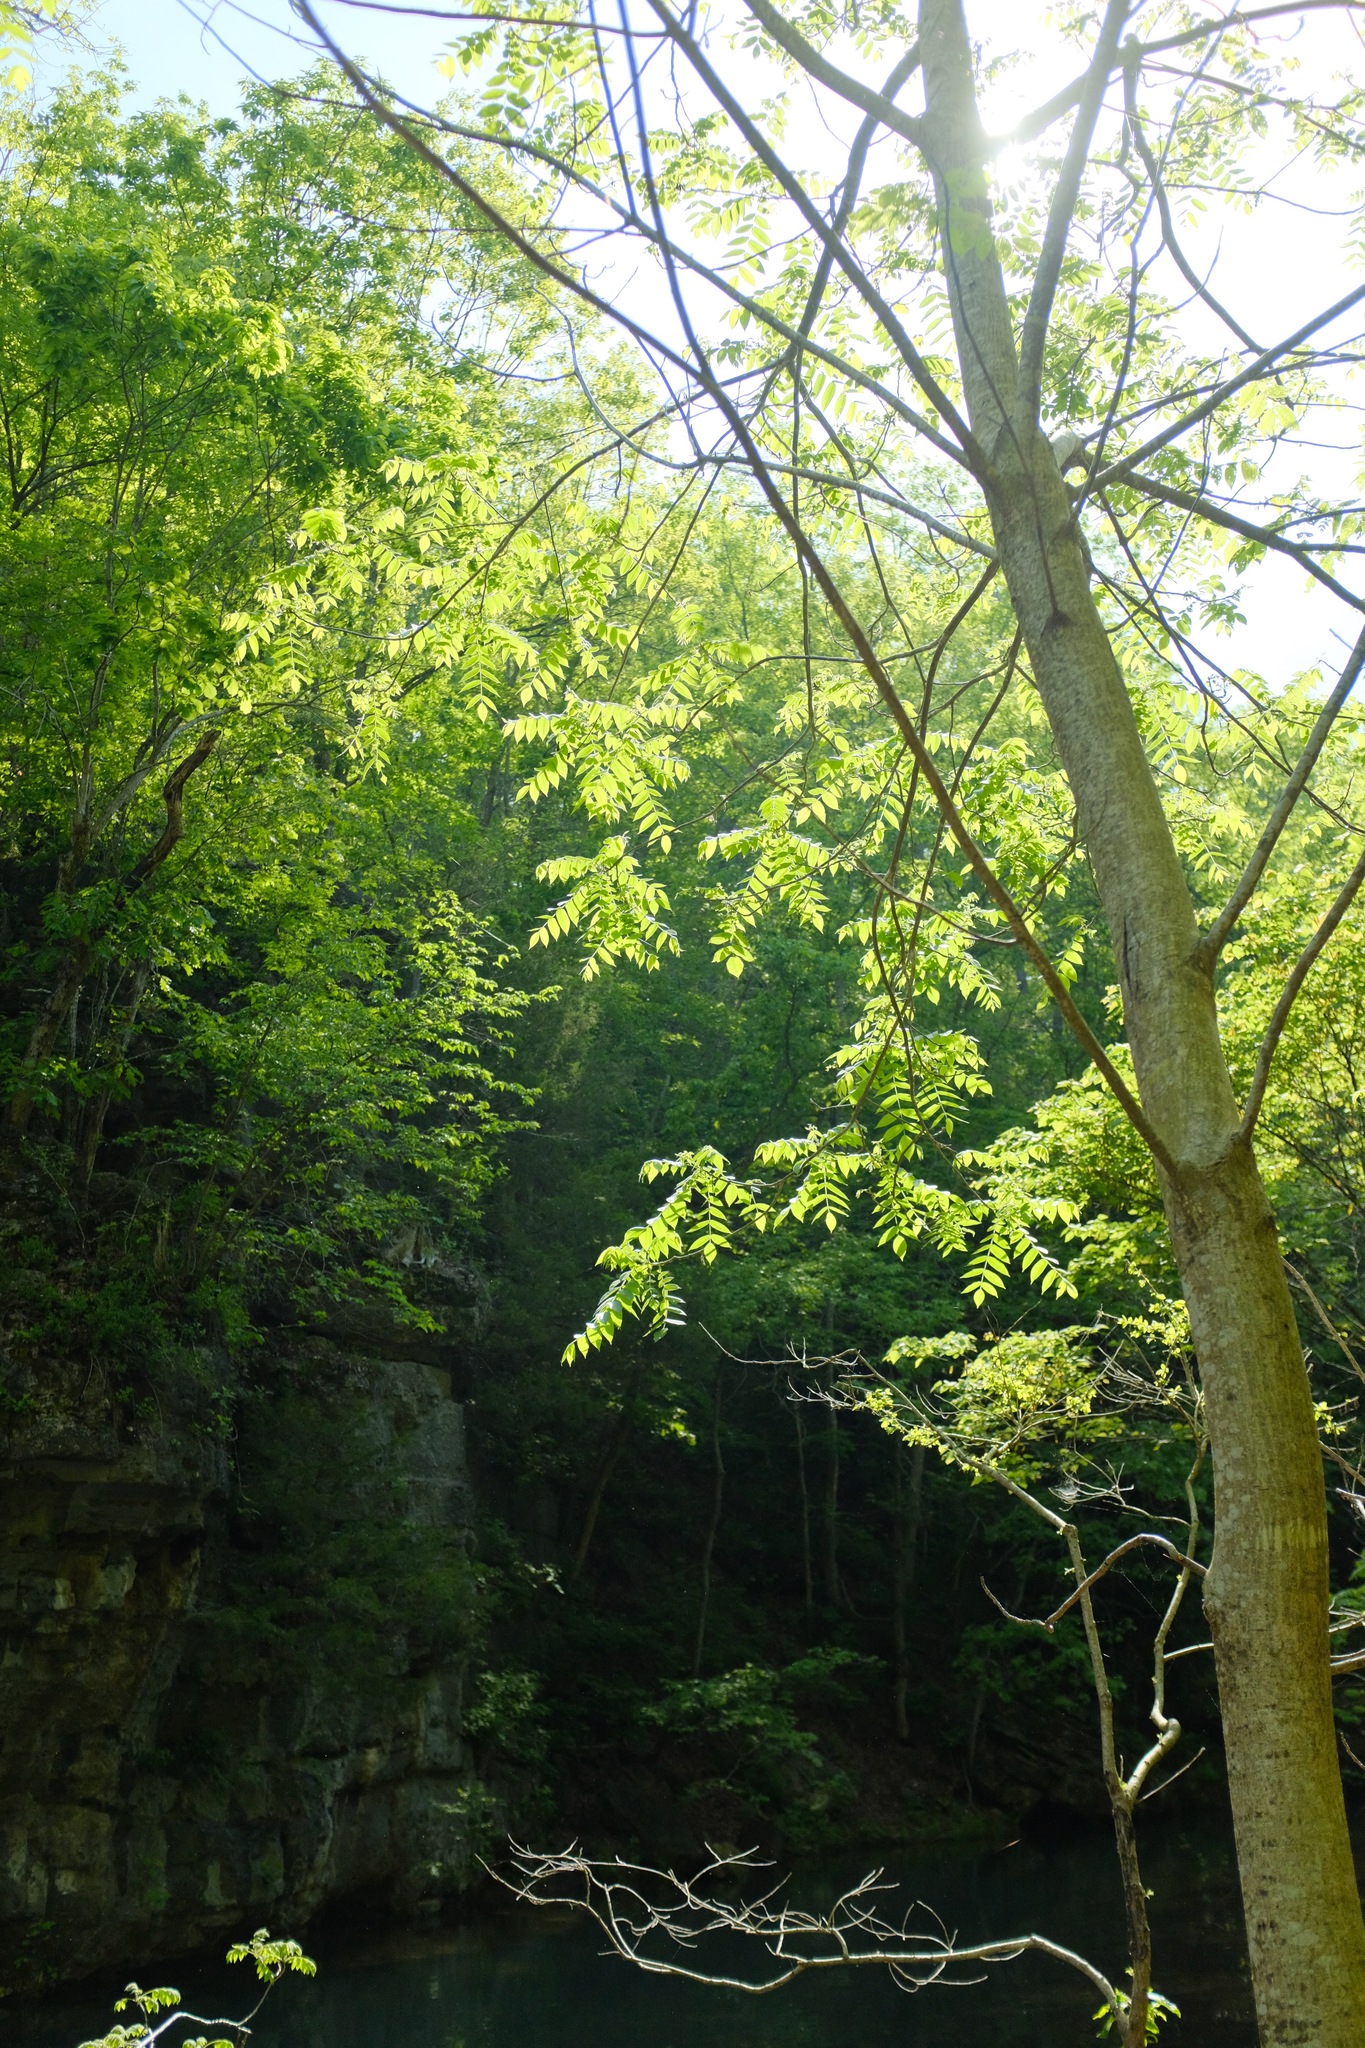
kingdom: Plantae
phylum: Tracheophyta
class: Magnoliopsida
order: Fagales
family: Juglandaceae
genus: Juglans
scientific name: Juglans cinerea
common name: Butternut
